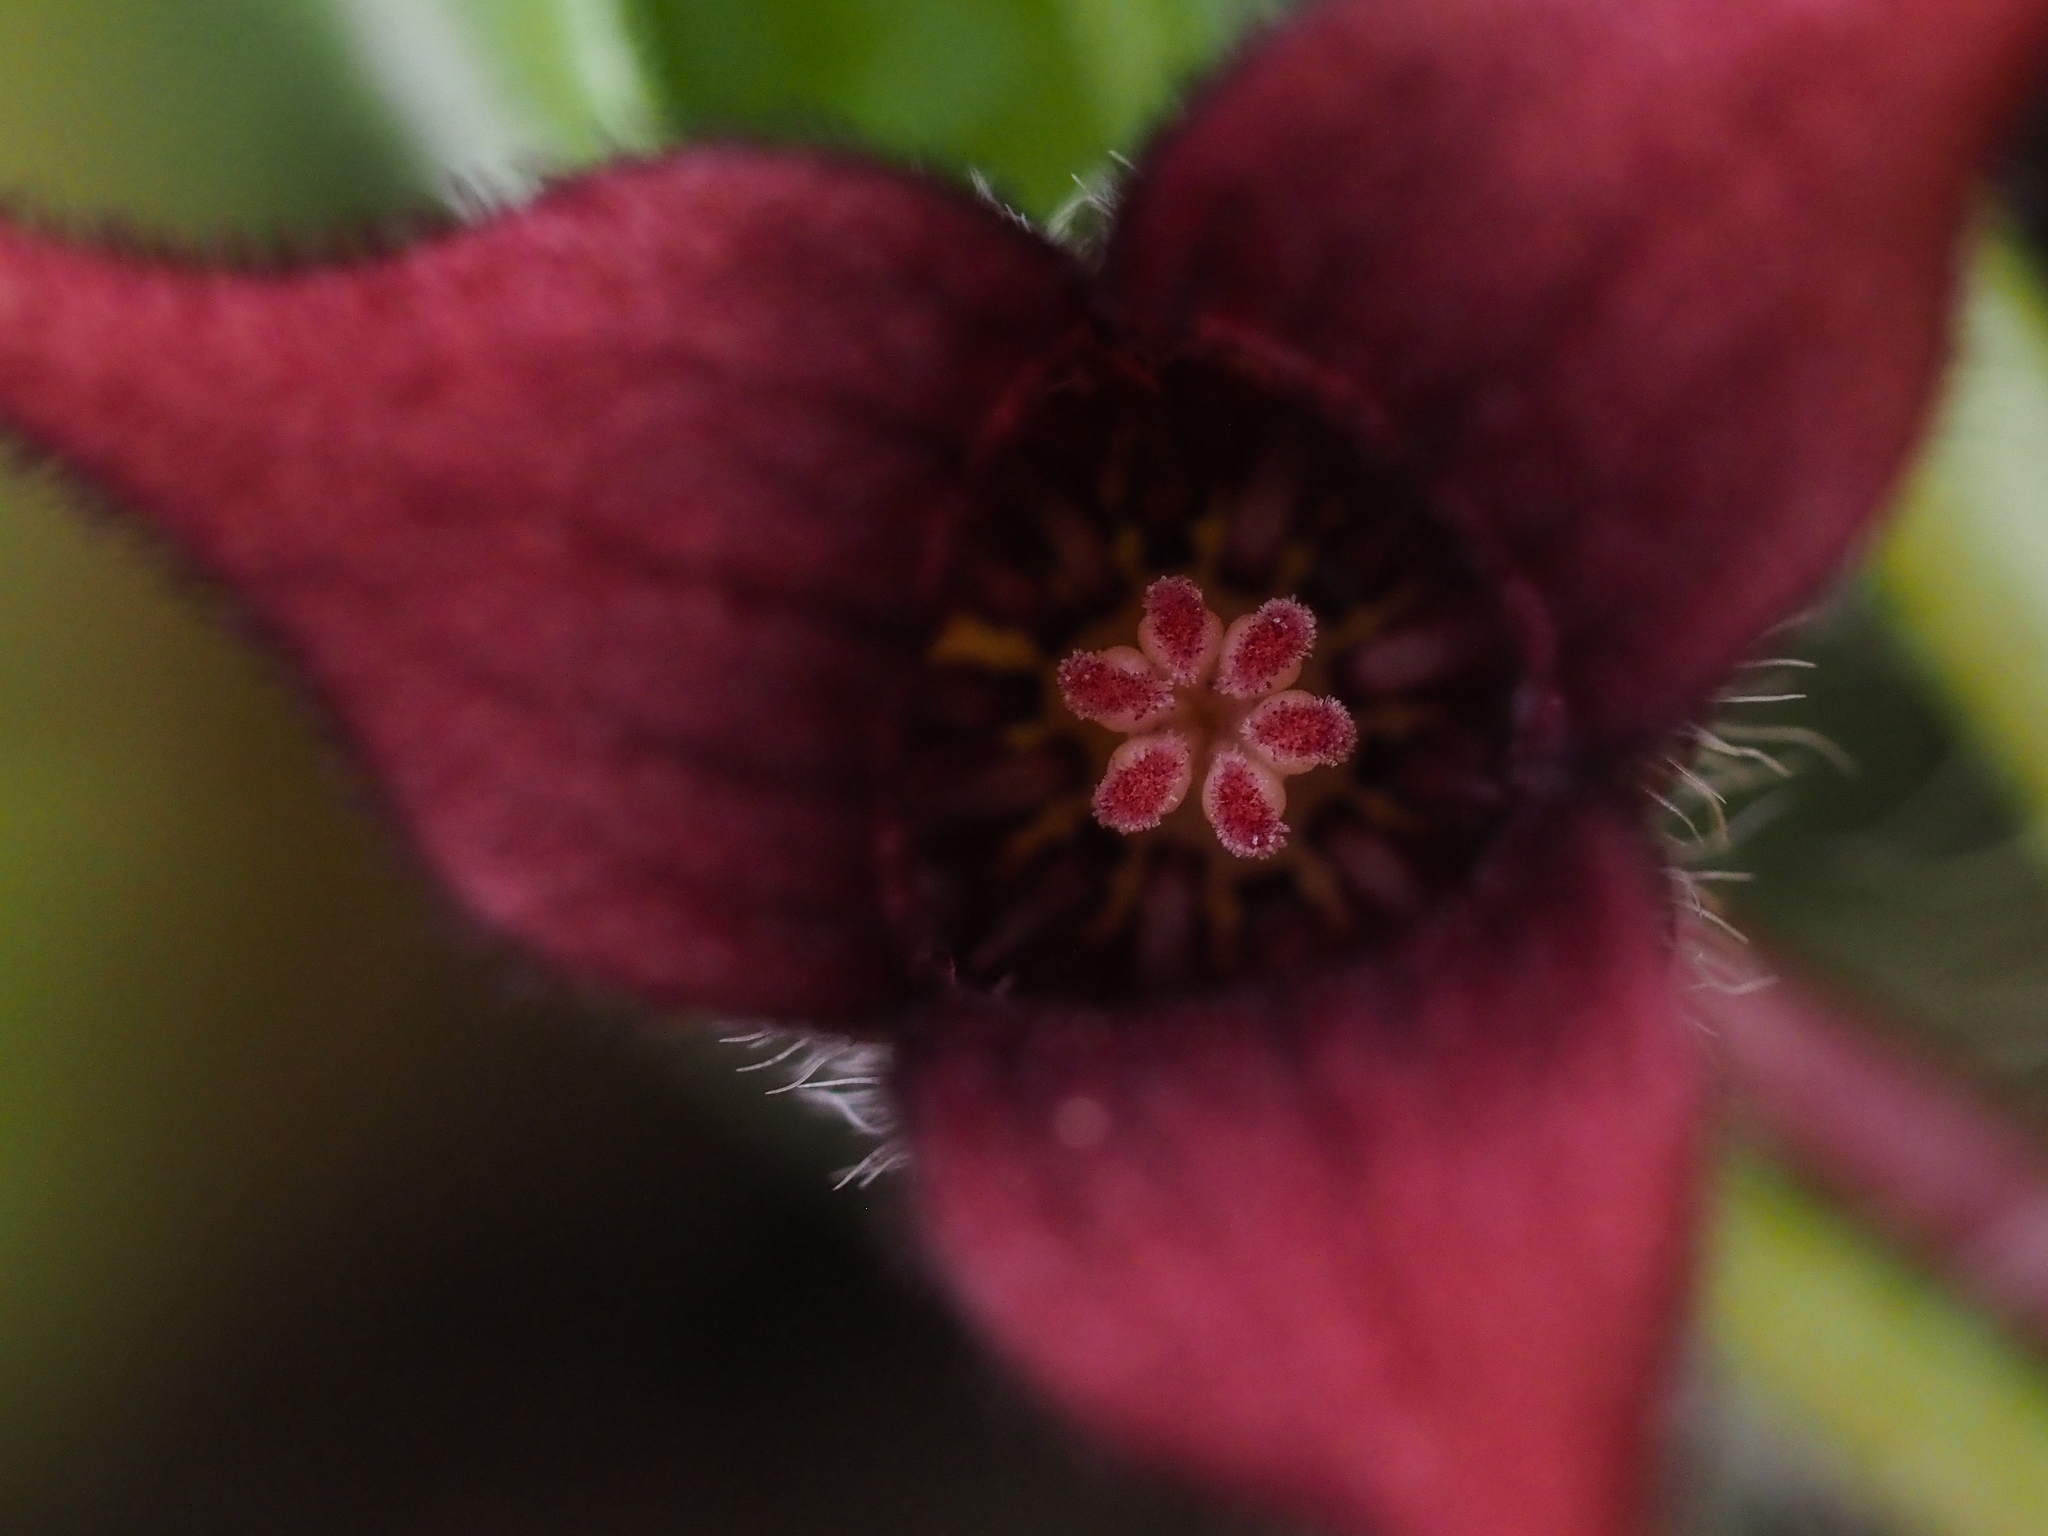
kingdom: Plantae
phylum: Tracheophyta
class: Magnoliopsida
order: Piperales
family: Aristolochiaceae
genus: Asarum
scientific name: Asarum caudatum
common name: Wild ginger
